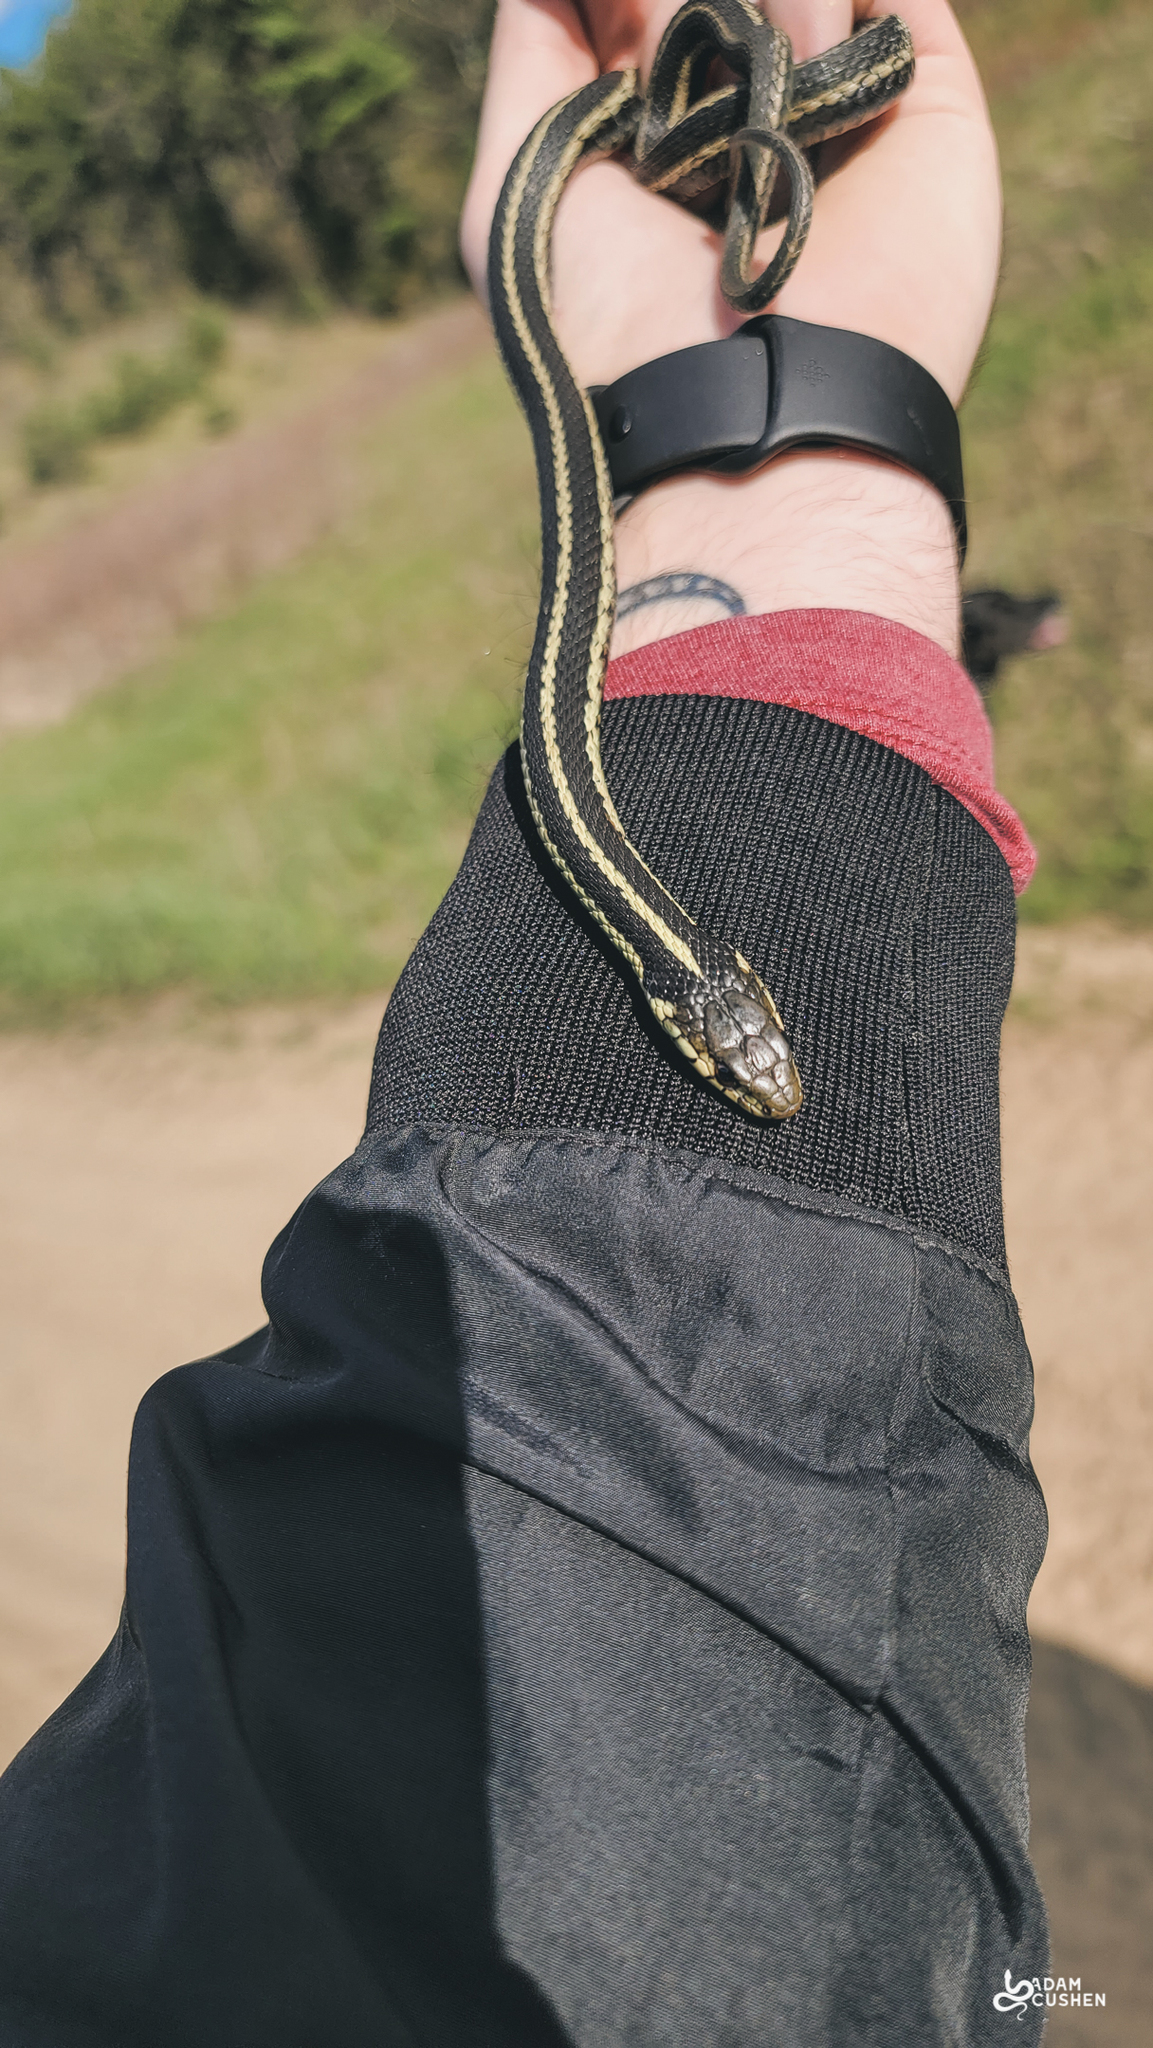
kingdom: Animalia
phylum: Chordata
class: Squamata
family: Colubridae
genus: Thamnophis
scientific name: Thamnophis sirtalis
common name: Common garter snake
